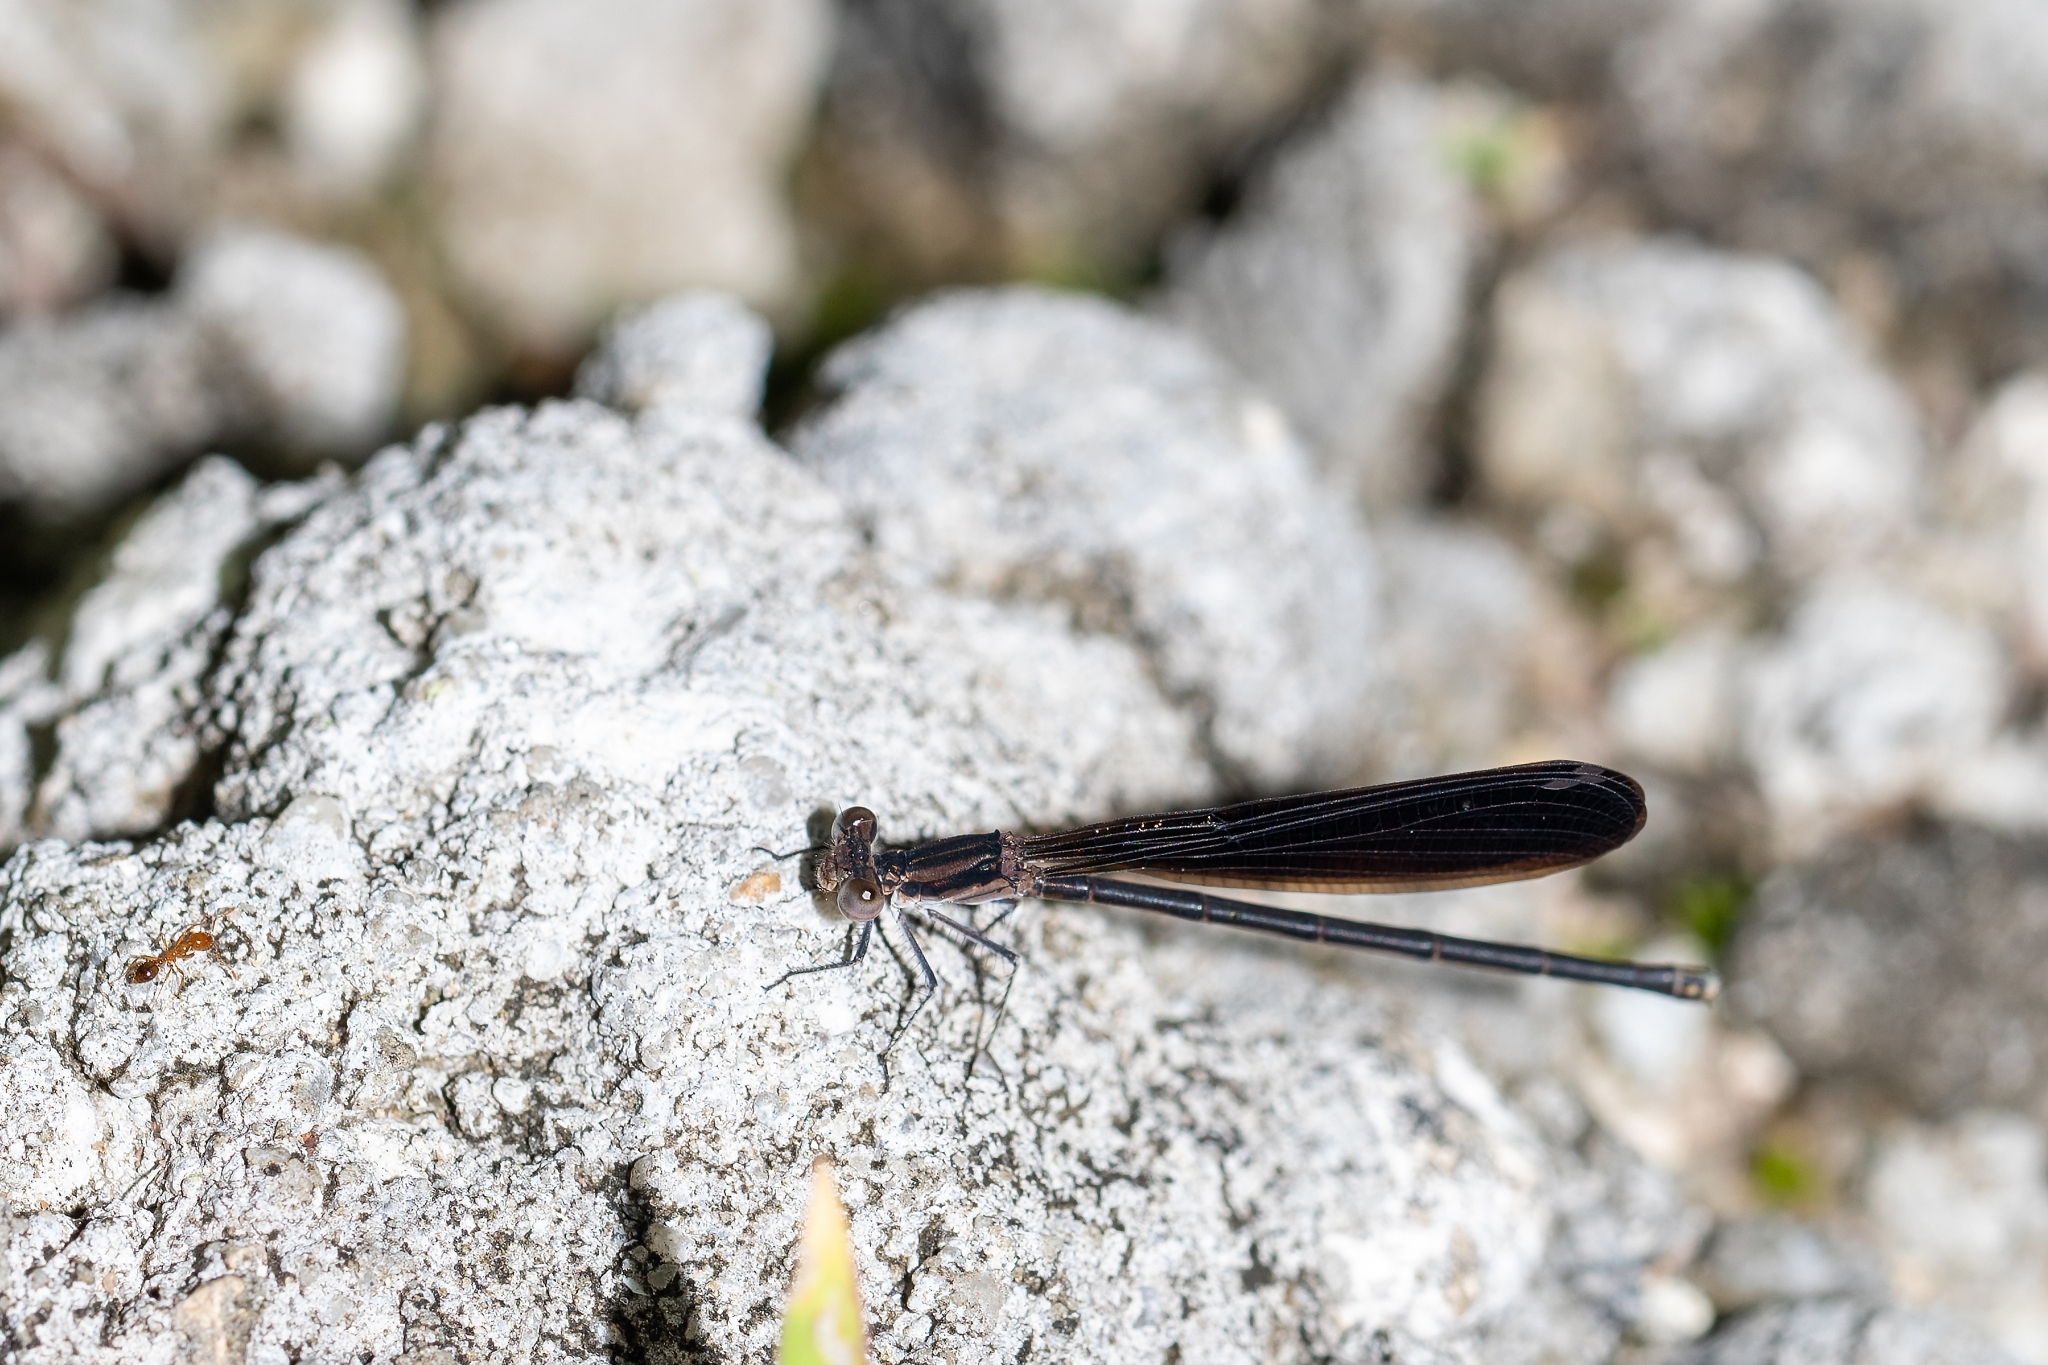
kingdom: Animalia
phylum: Arthropoda
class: Insecta
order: Odonata
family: Coenagrionidae
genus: Argia
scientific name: Argia fumipennis
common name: Variable dancer
